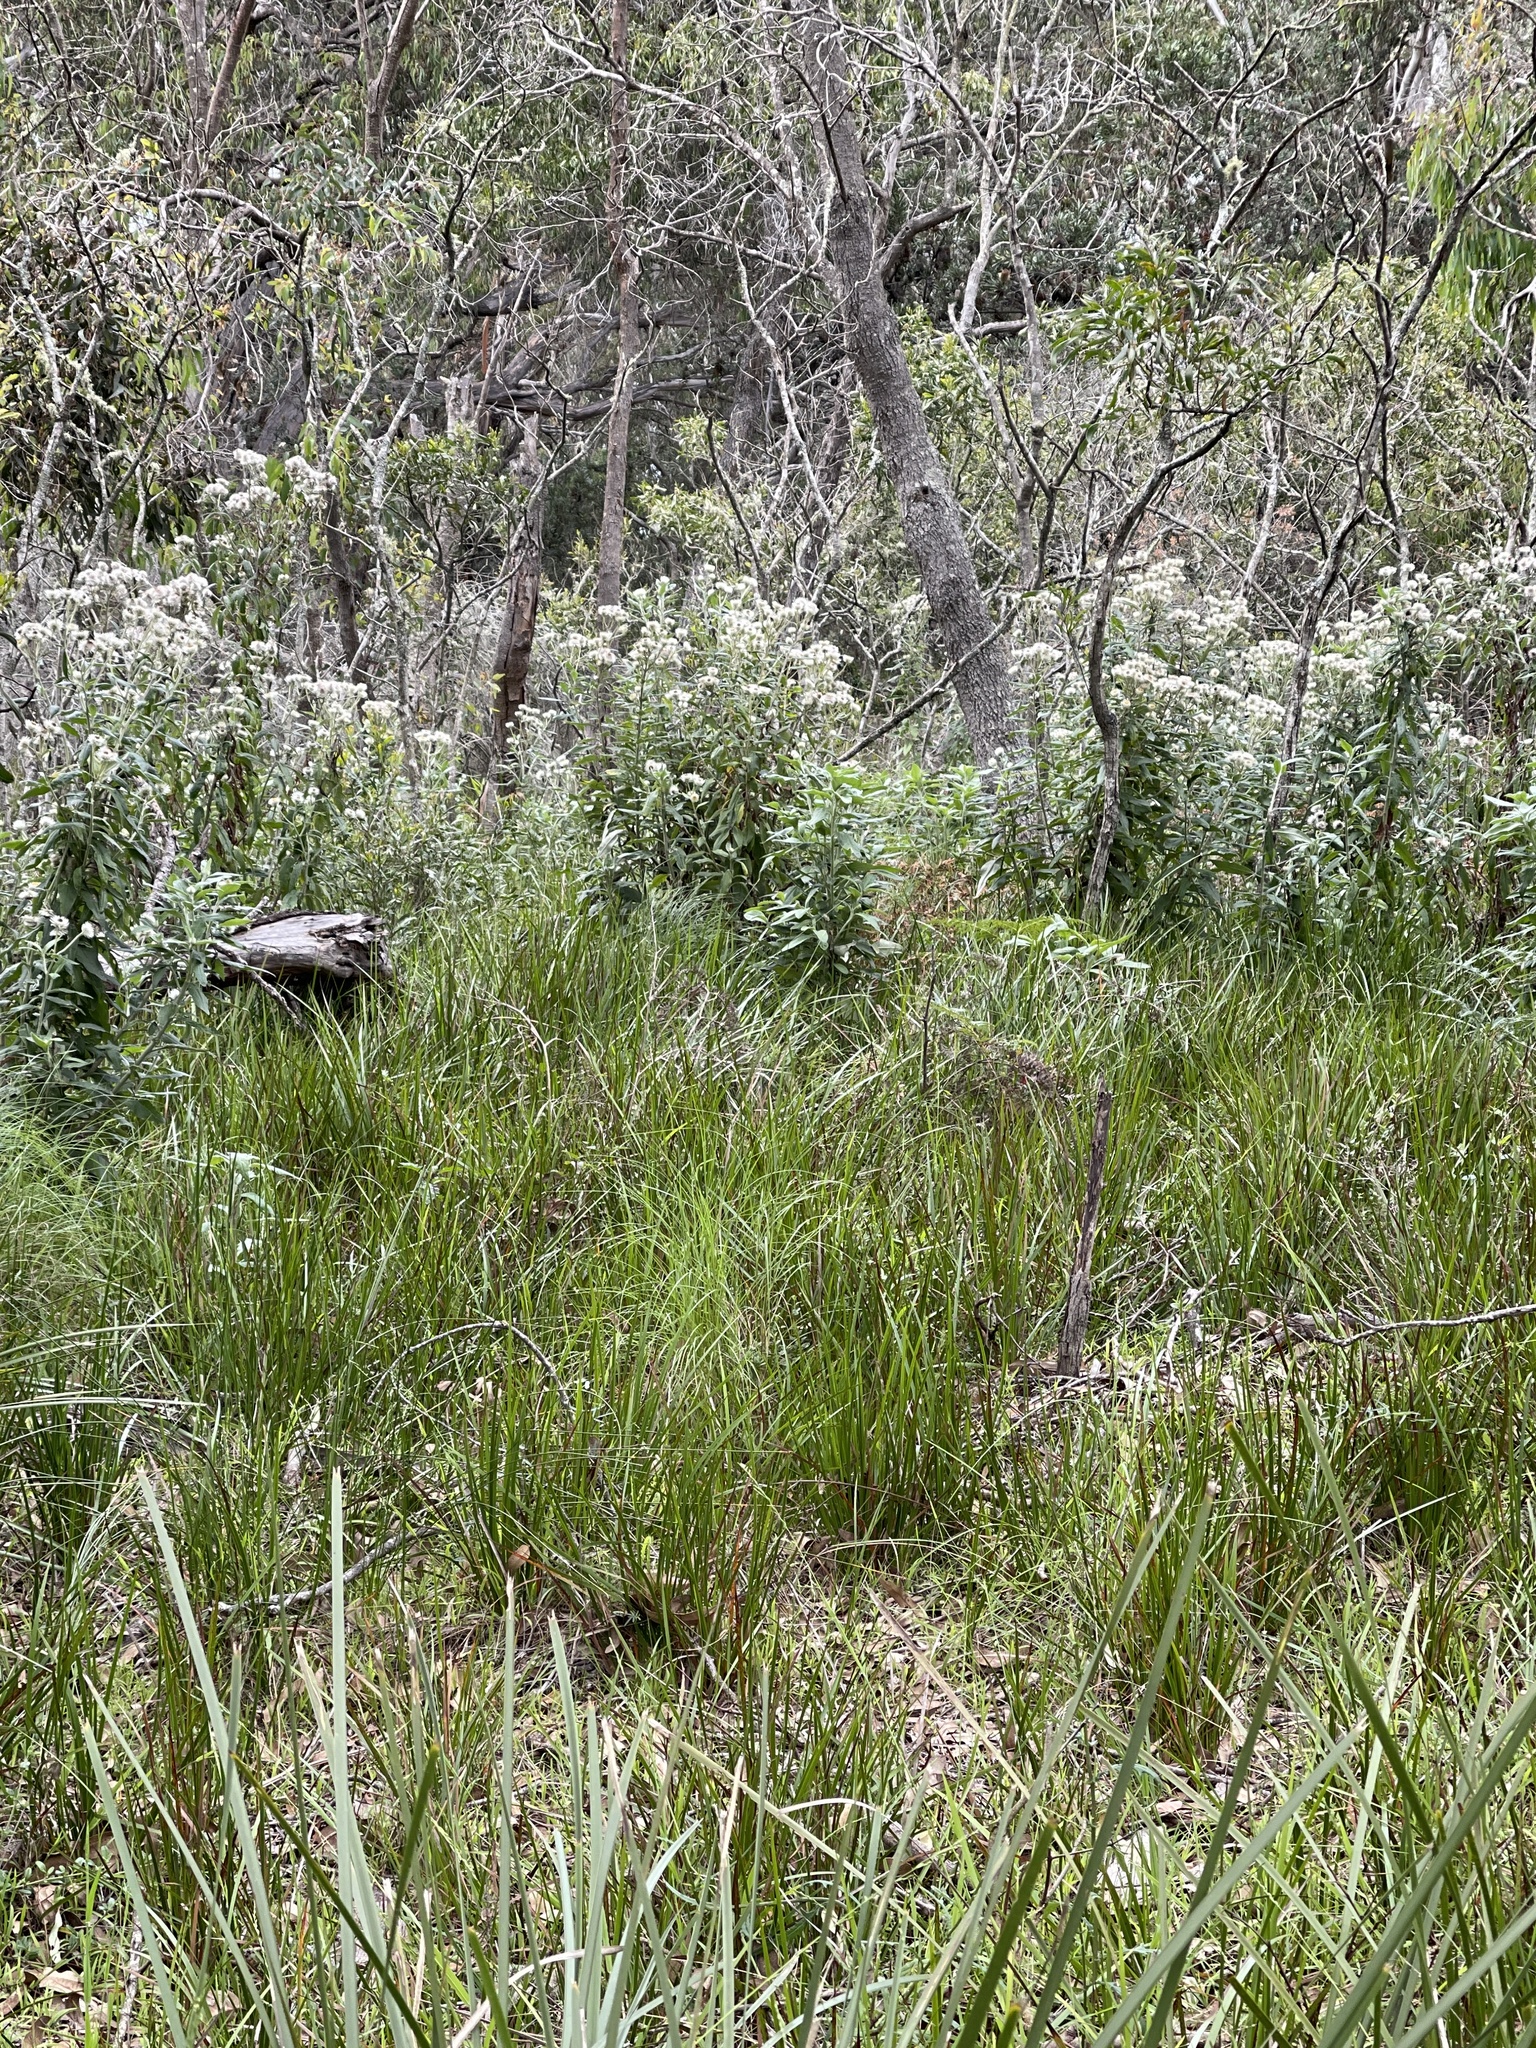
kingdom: Plantae
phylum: Tracheophyta
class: Magnoliopsida
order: Asterales
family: Asteraceae
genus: Leucozoma
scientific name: Leucozoma elatum
